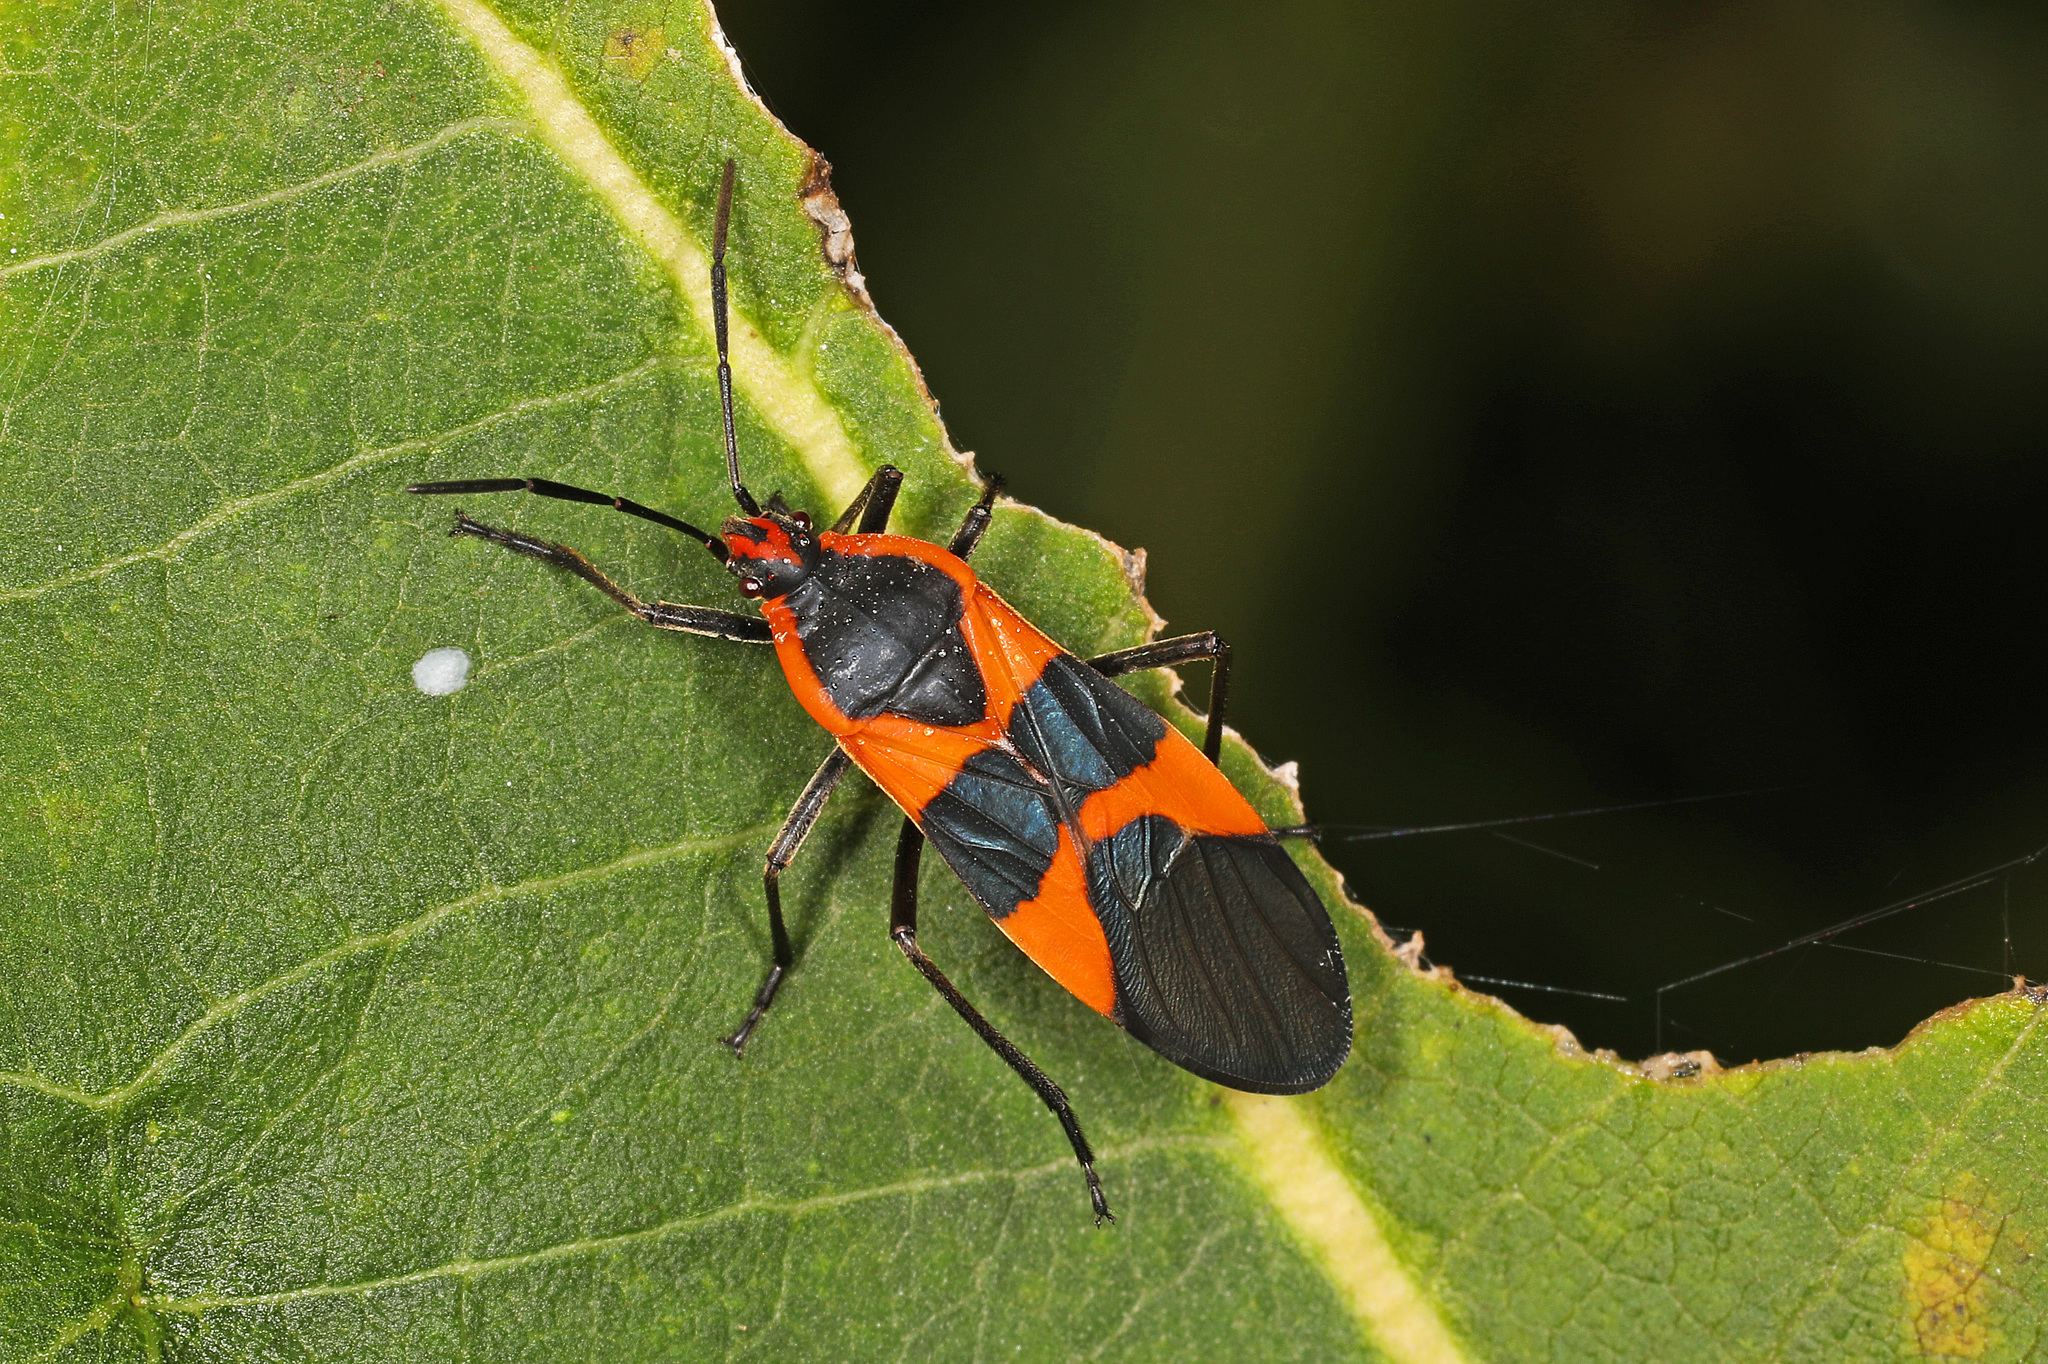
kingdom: Animalia
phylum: Arthropoda
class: Insecta
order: Hemiptera
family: Lygaeidae
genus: Oncopeltus
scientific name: Oncopeltus fasciatus
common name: Large milkweed bug
